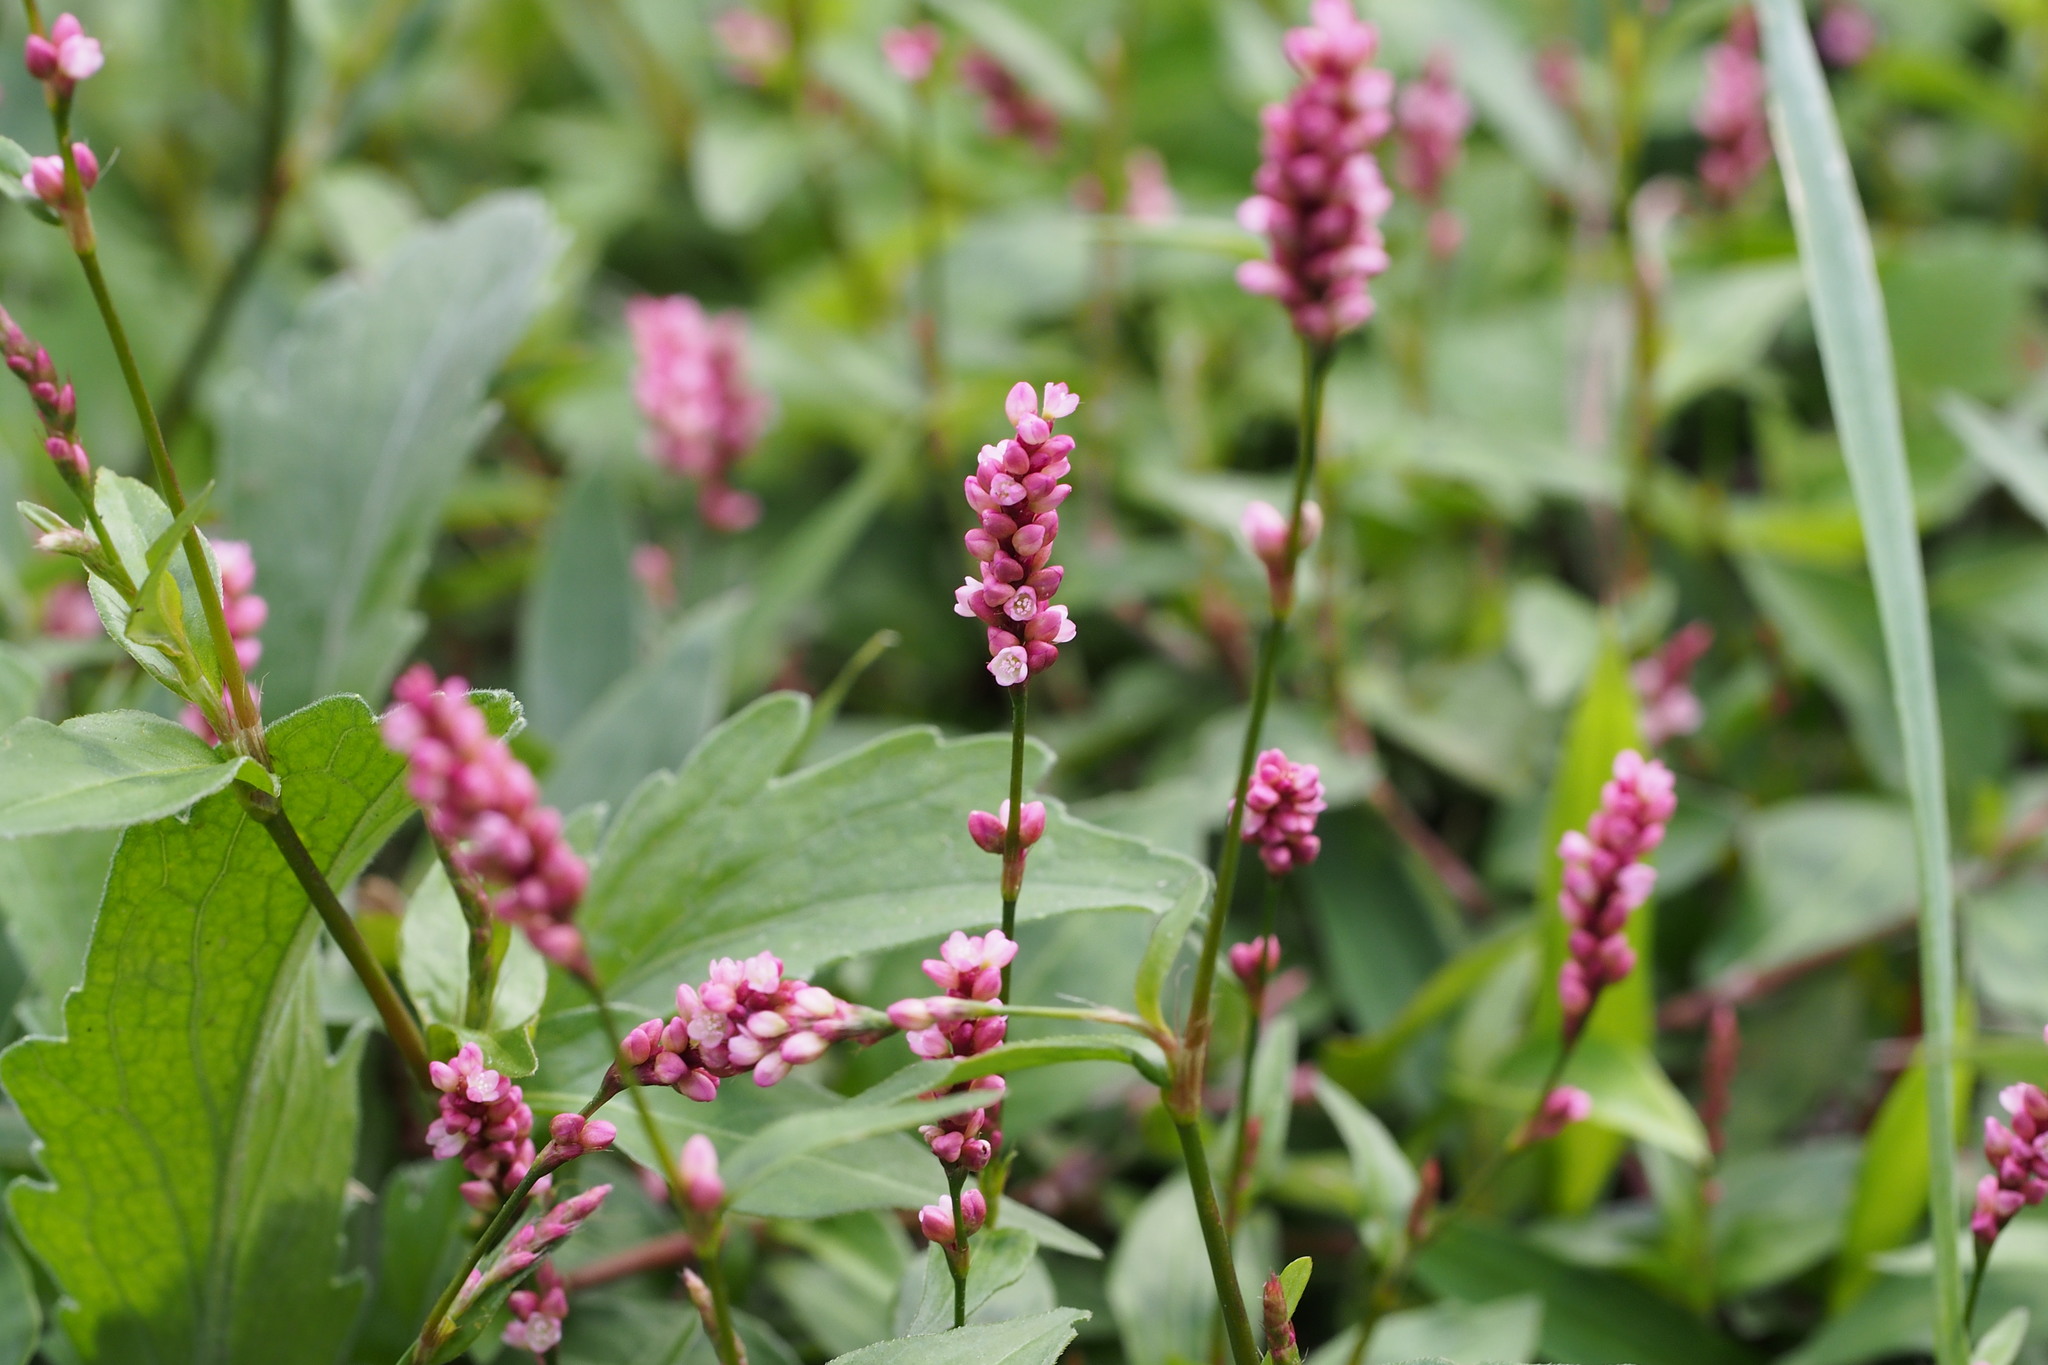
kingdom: Plantae
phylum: Tracheophyta
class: Magnoliopsida
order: Caryophyllales
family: Polygonaceae
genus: Persicaria
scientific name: Persicaria longiseta
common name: Bristly lady's-thumb
